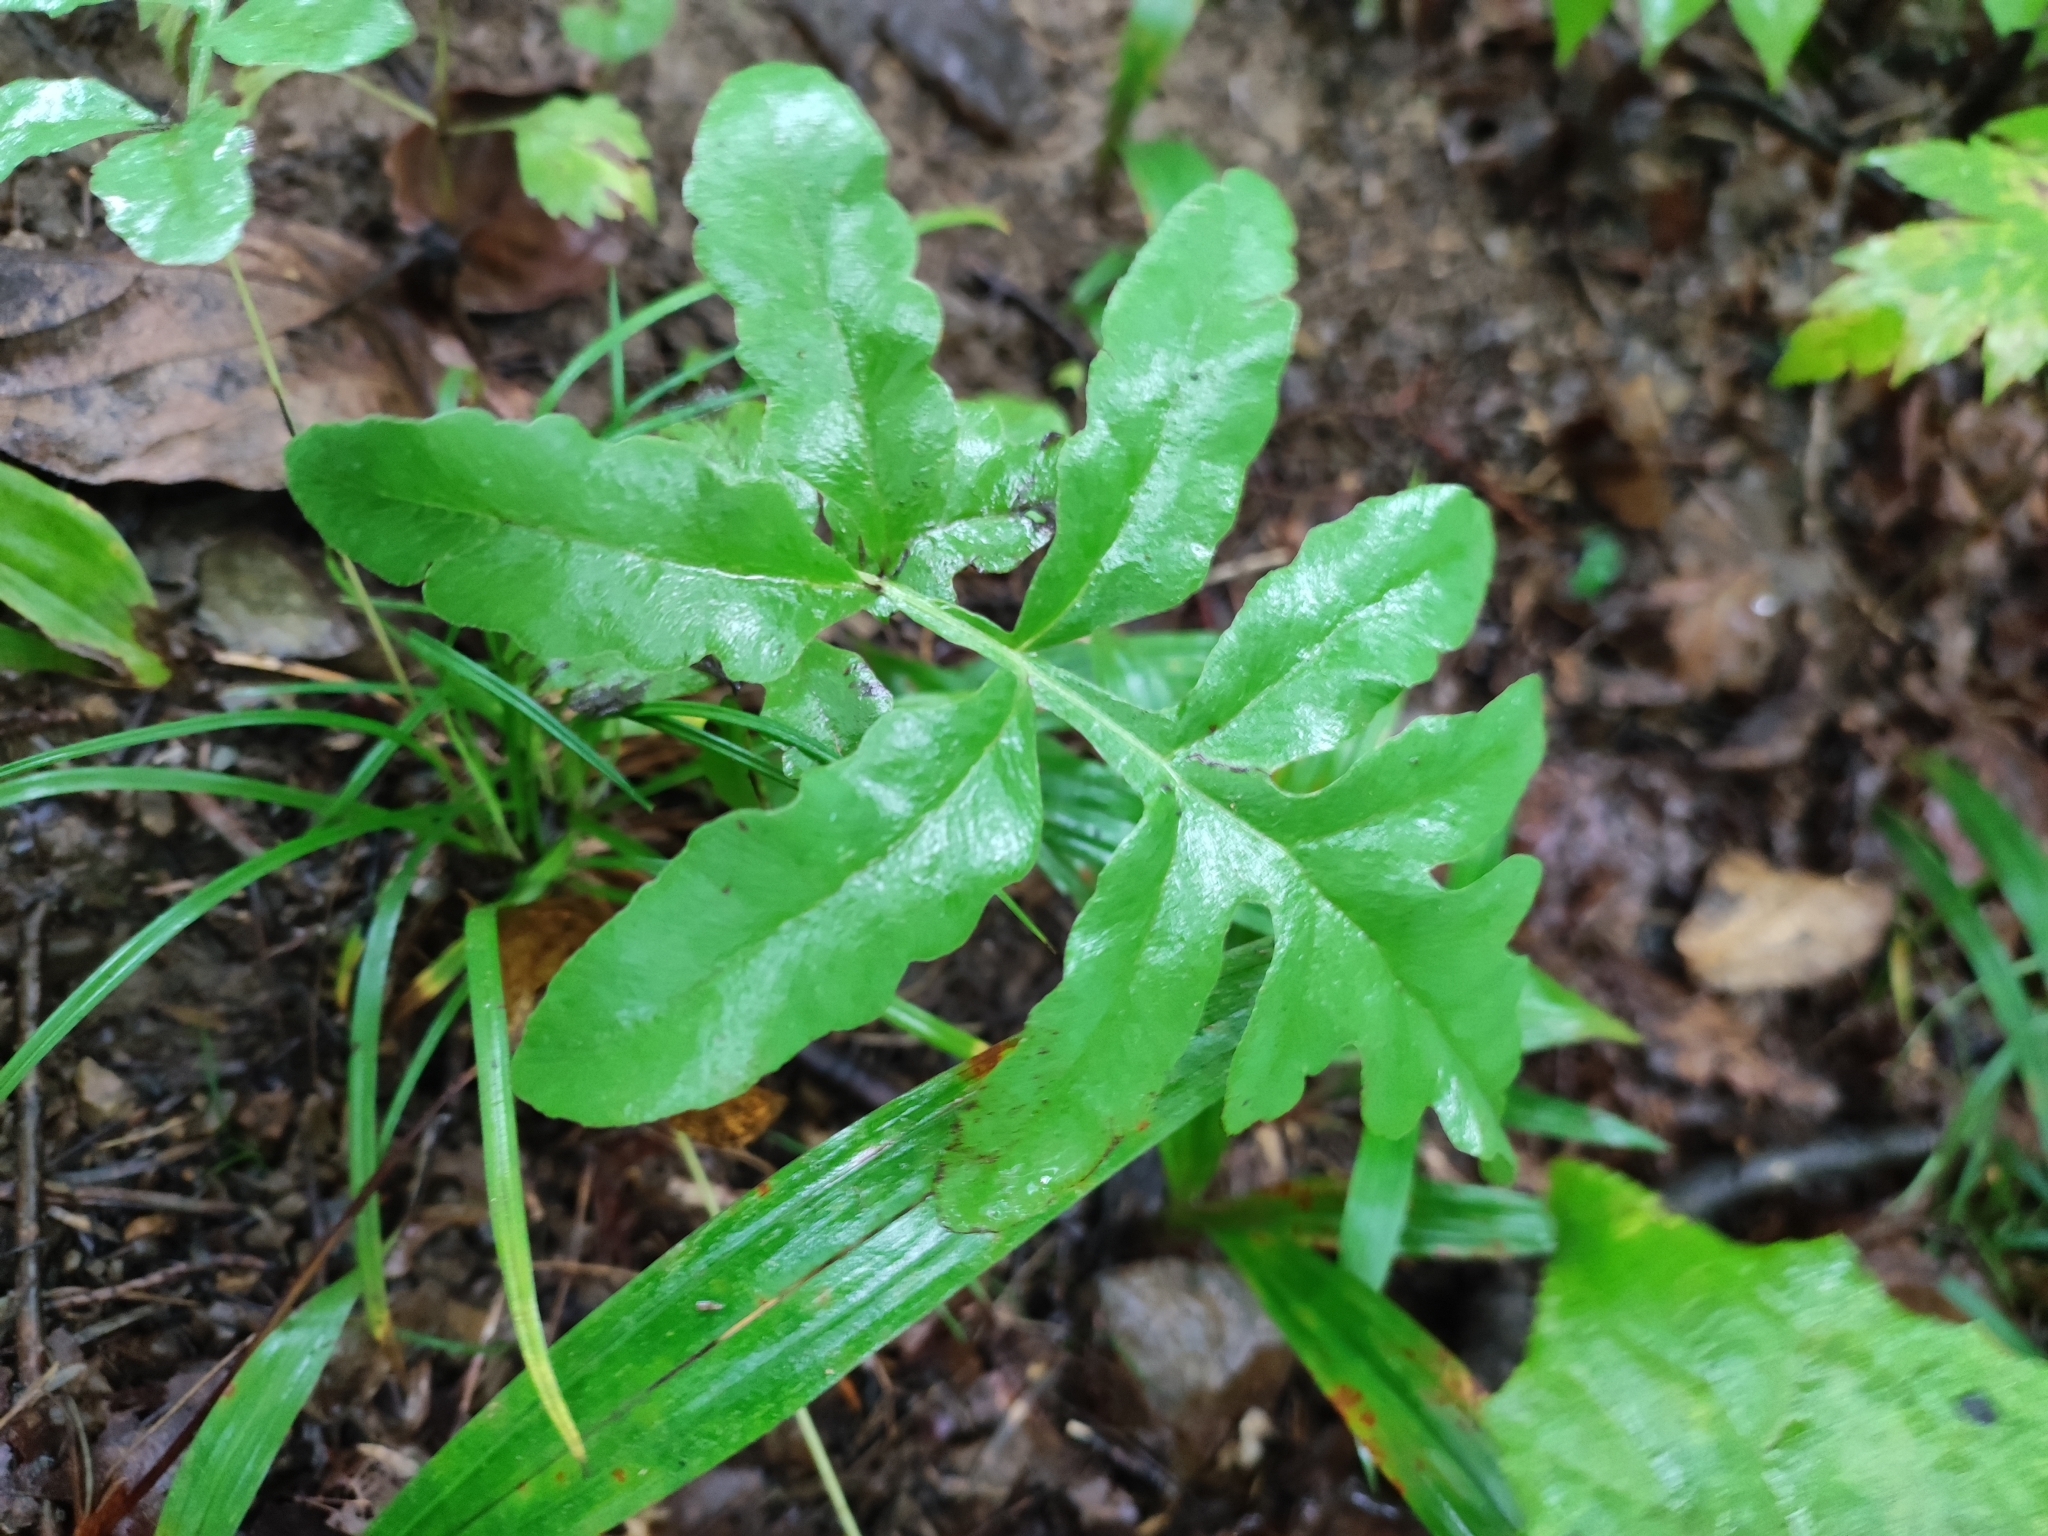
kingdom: Plantae
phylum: Tracheophyta
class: Polypodiopsida
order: Polypodiales
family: Onocleaceae
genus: Onoclea
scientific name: Onoclea sensibilis
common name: Sensitive fern
